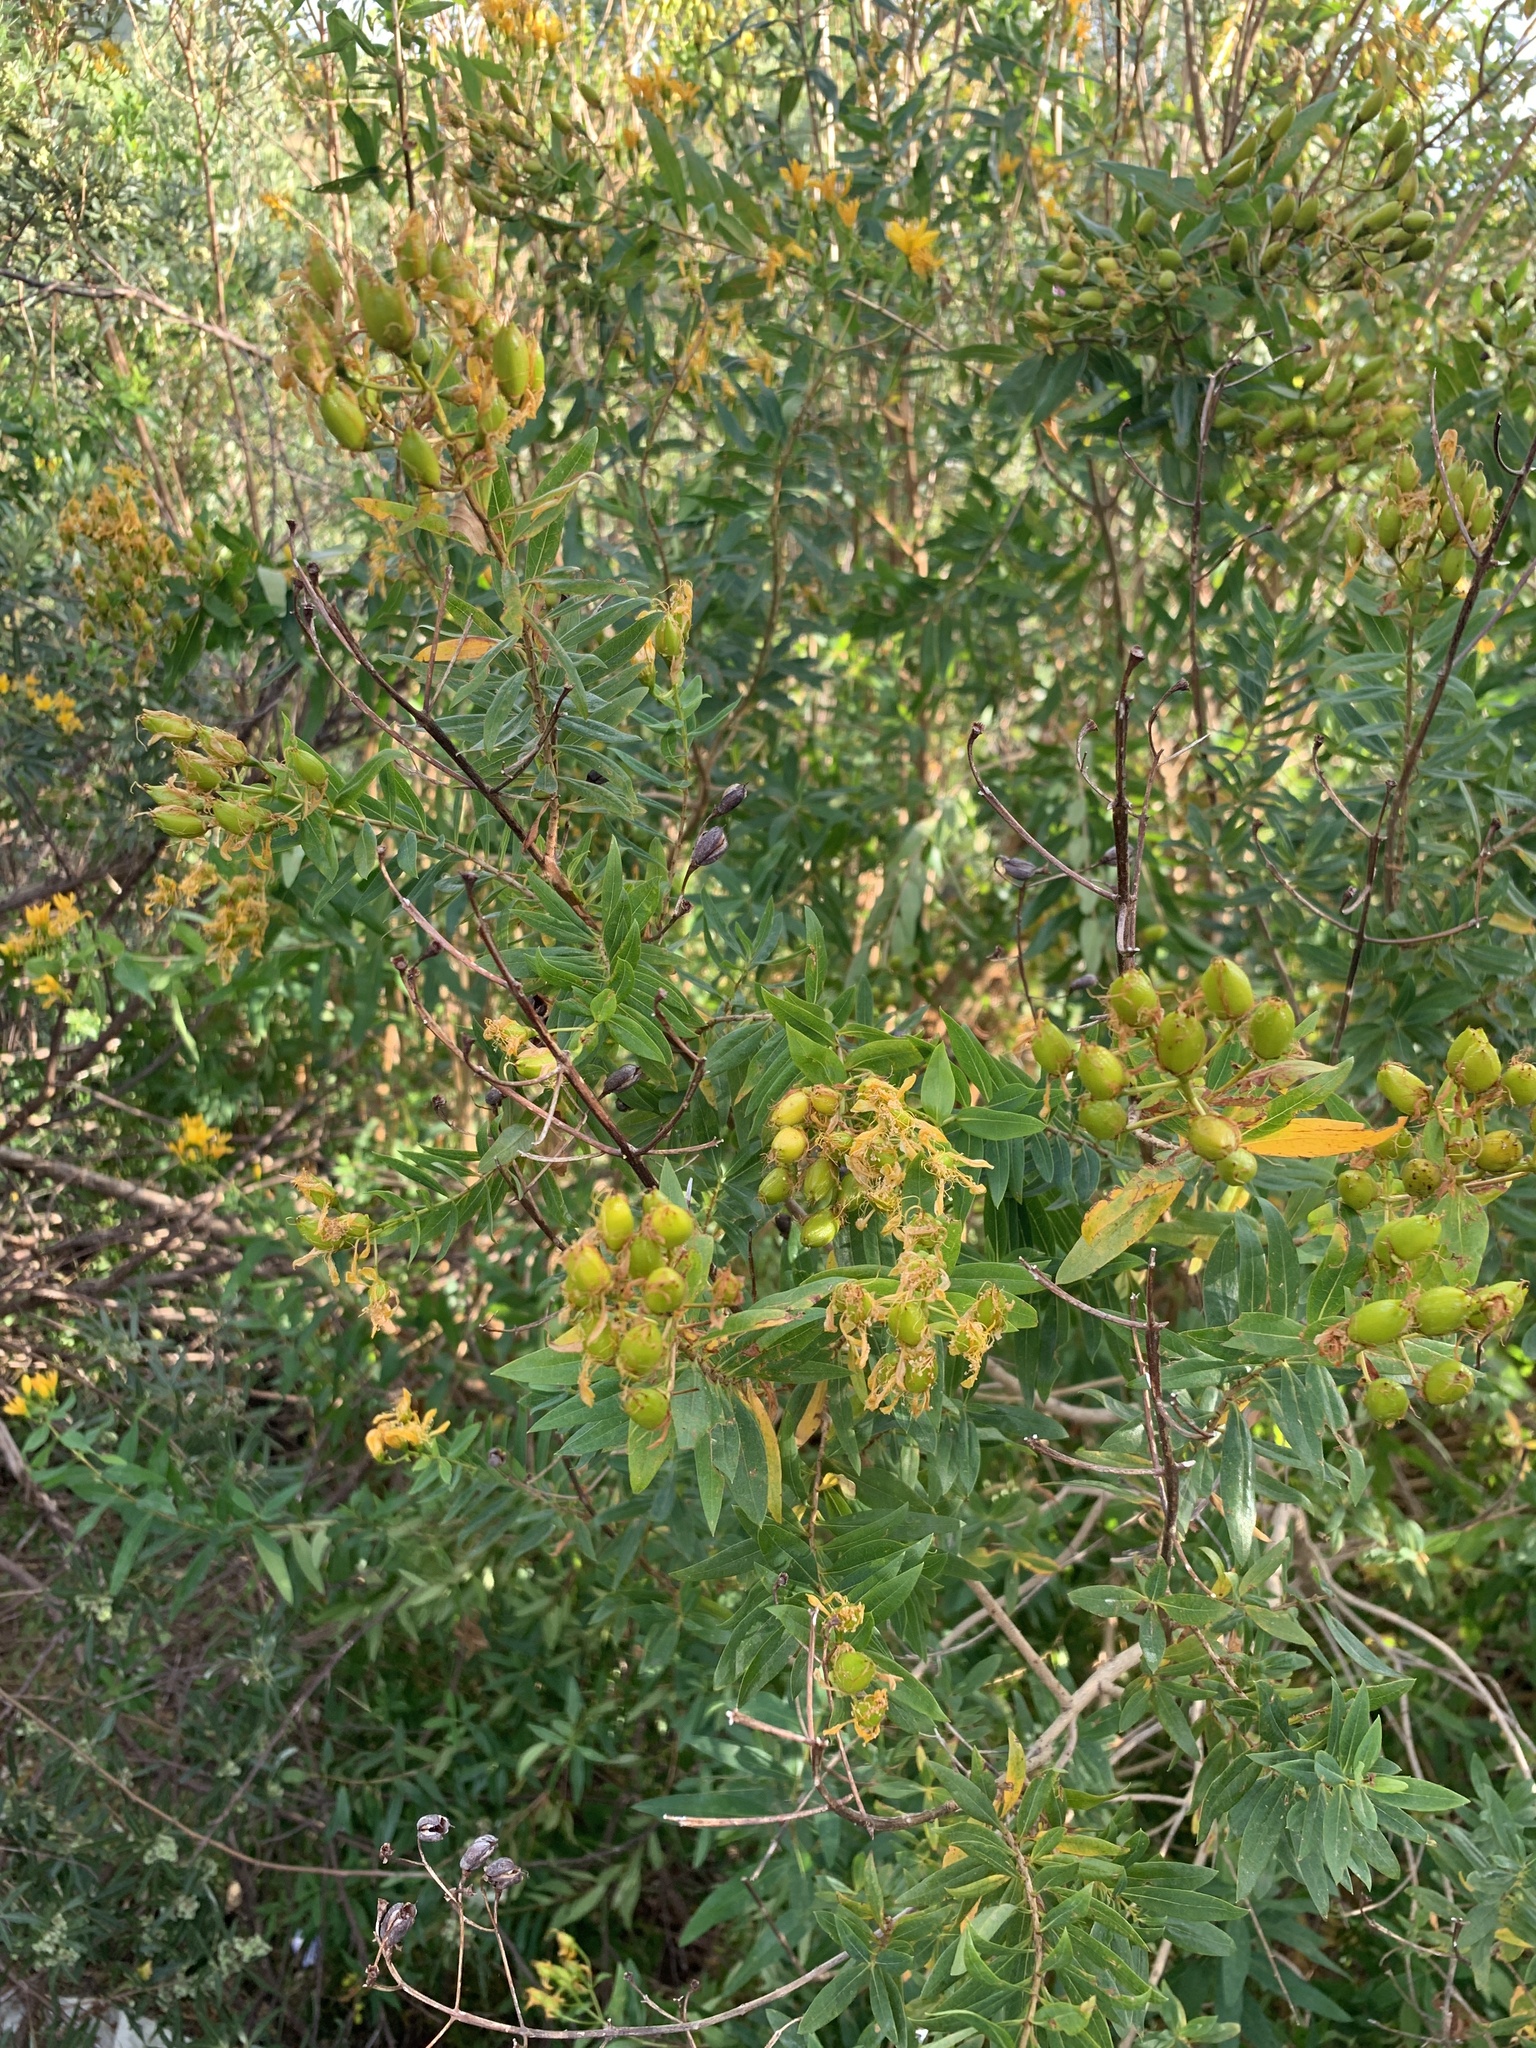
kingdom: Plantae
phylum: Tracheophyta
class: Magnoliopsida
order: Malpighiales
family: Hypericaceae
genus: Hypericum
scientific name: Hypericum canariense
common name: Canary island st. johnswort
